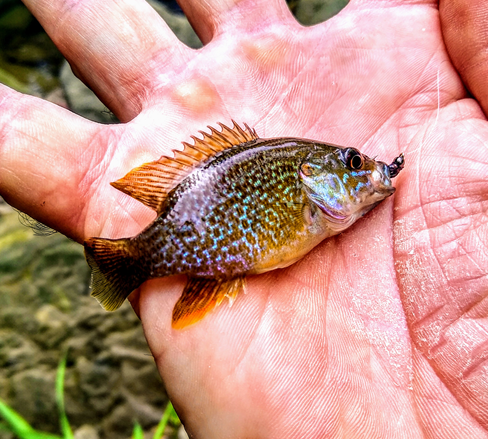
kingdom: Animalia
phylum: Chordata
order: Perciformes
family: Centrarchidae
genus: Lepomis
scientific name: Lepomis cyanellus
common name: Green sunfish
